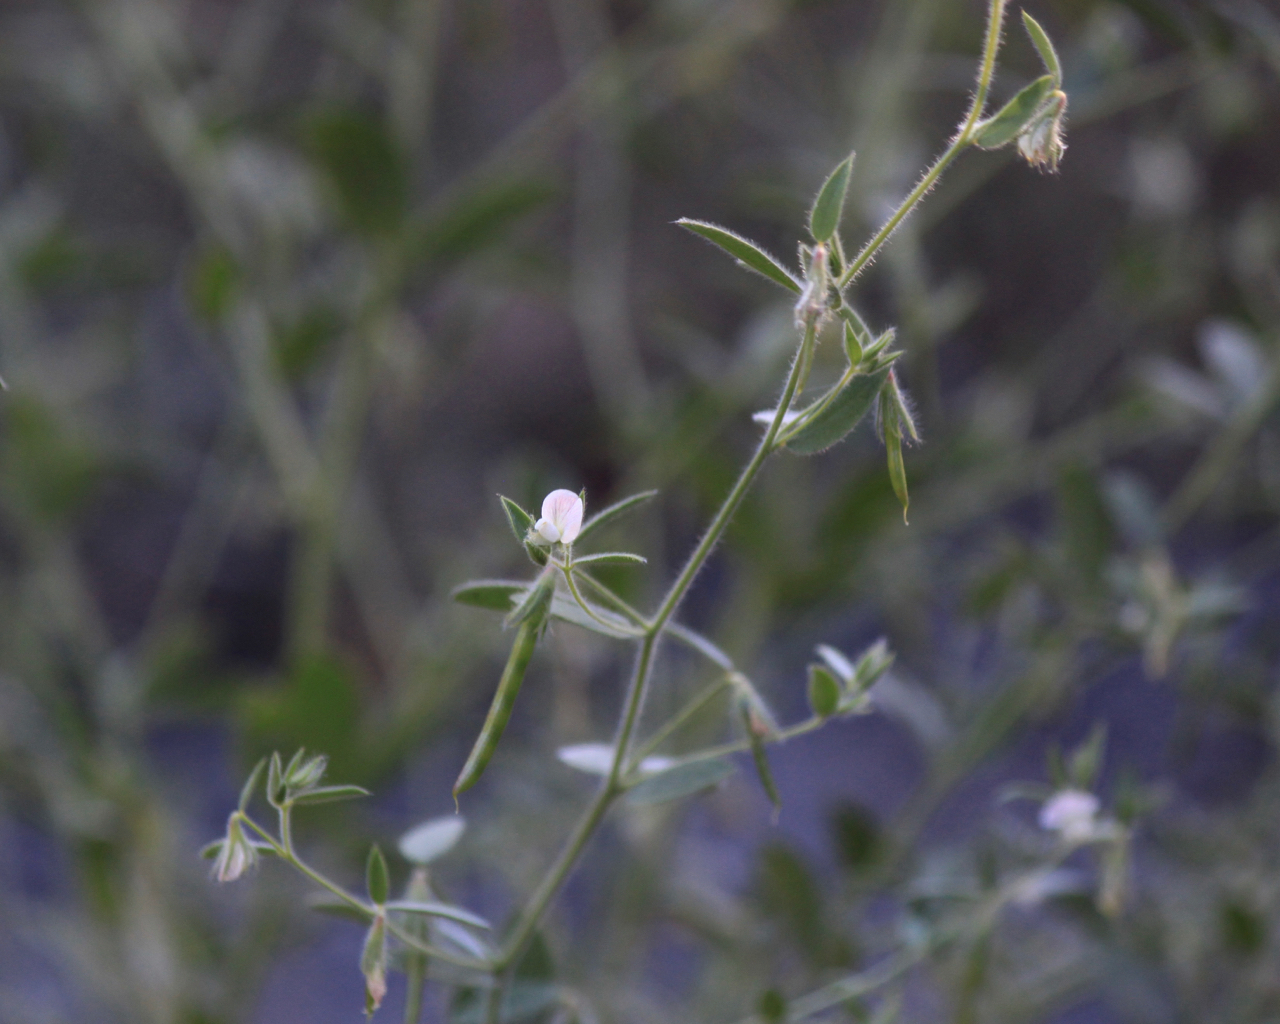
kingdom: Plantae
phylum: Tracheophyta
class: Magnoliopsida
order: Fabales
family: Fabaceae
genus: Acmispon
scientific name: Acmispon americanus
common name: American bird's-foot trefoil
